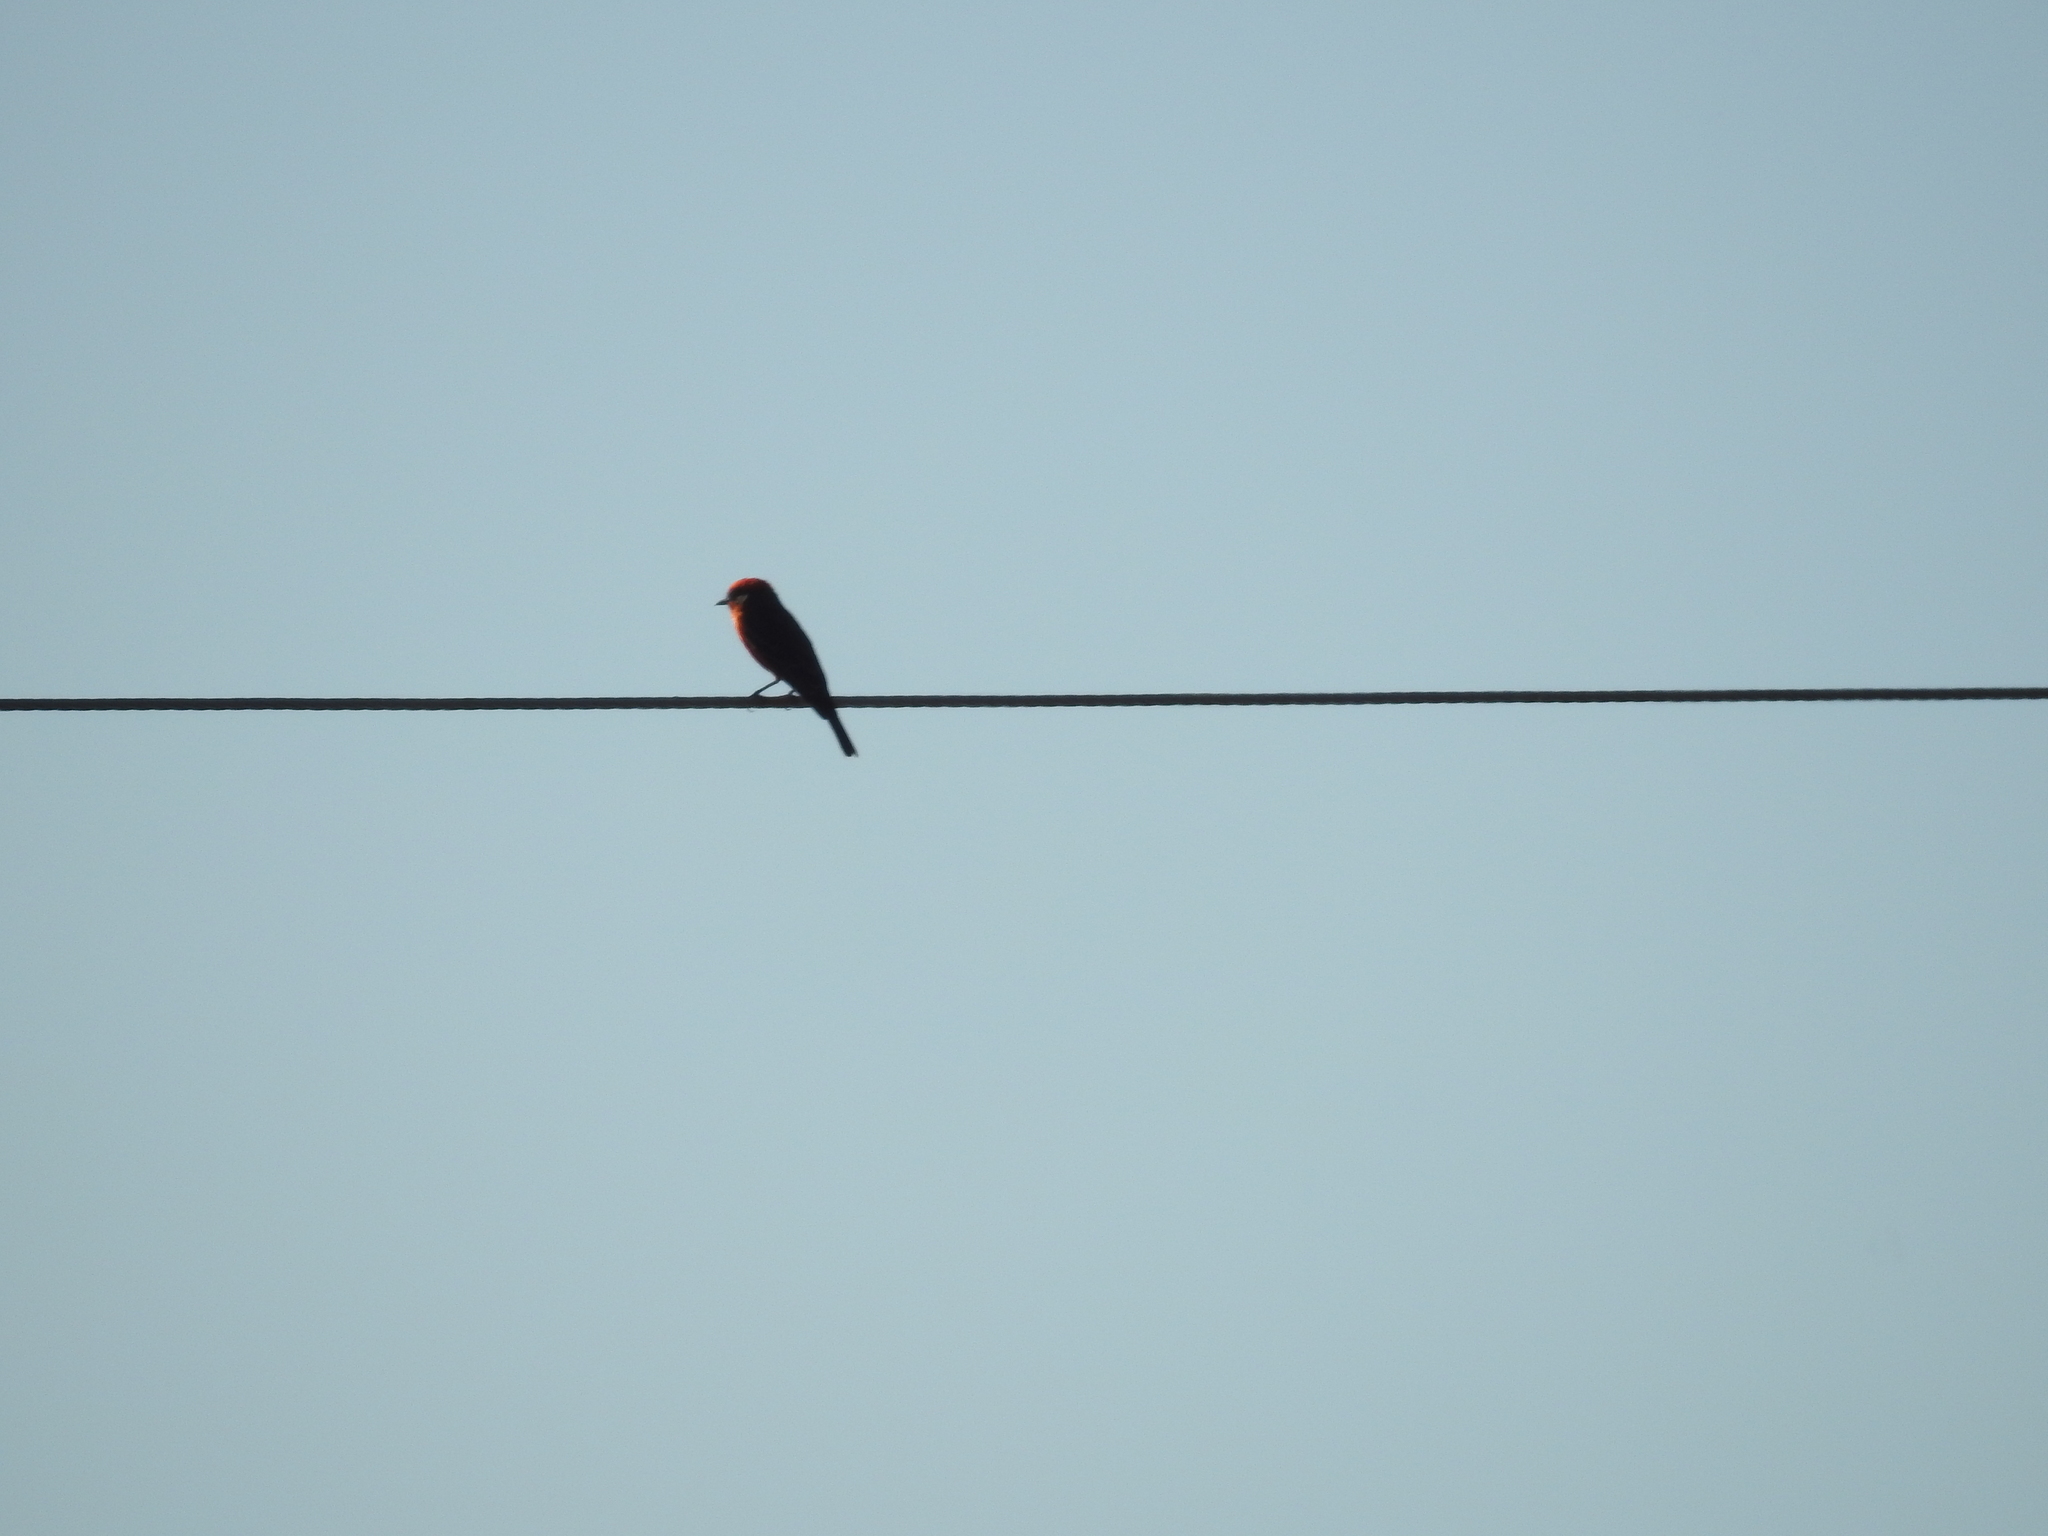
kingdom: Animalia
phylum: Chordata
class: Aves
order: Passeriformes
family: Tyrannidae
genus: Pyrocephalus
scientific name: Pyrocephalus rubinus
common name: Vermilion flycatcher
